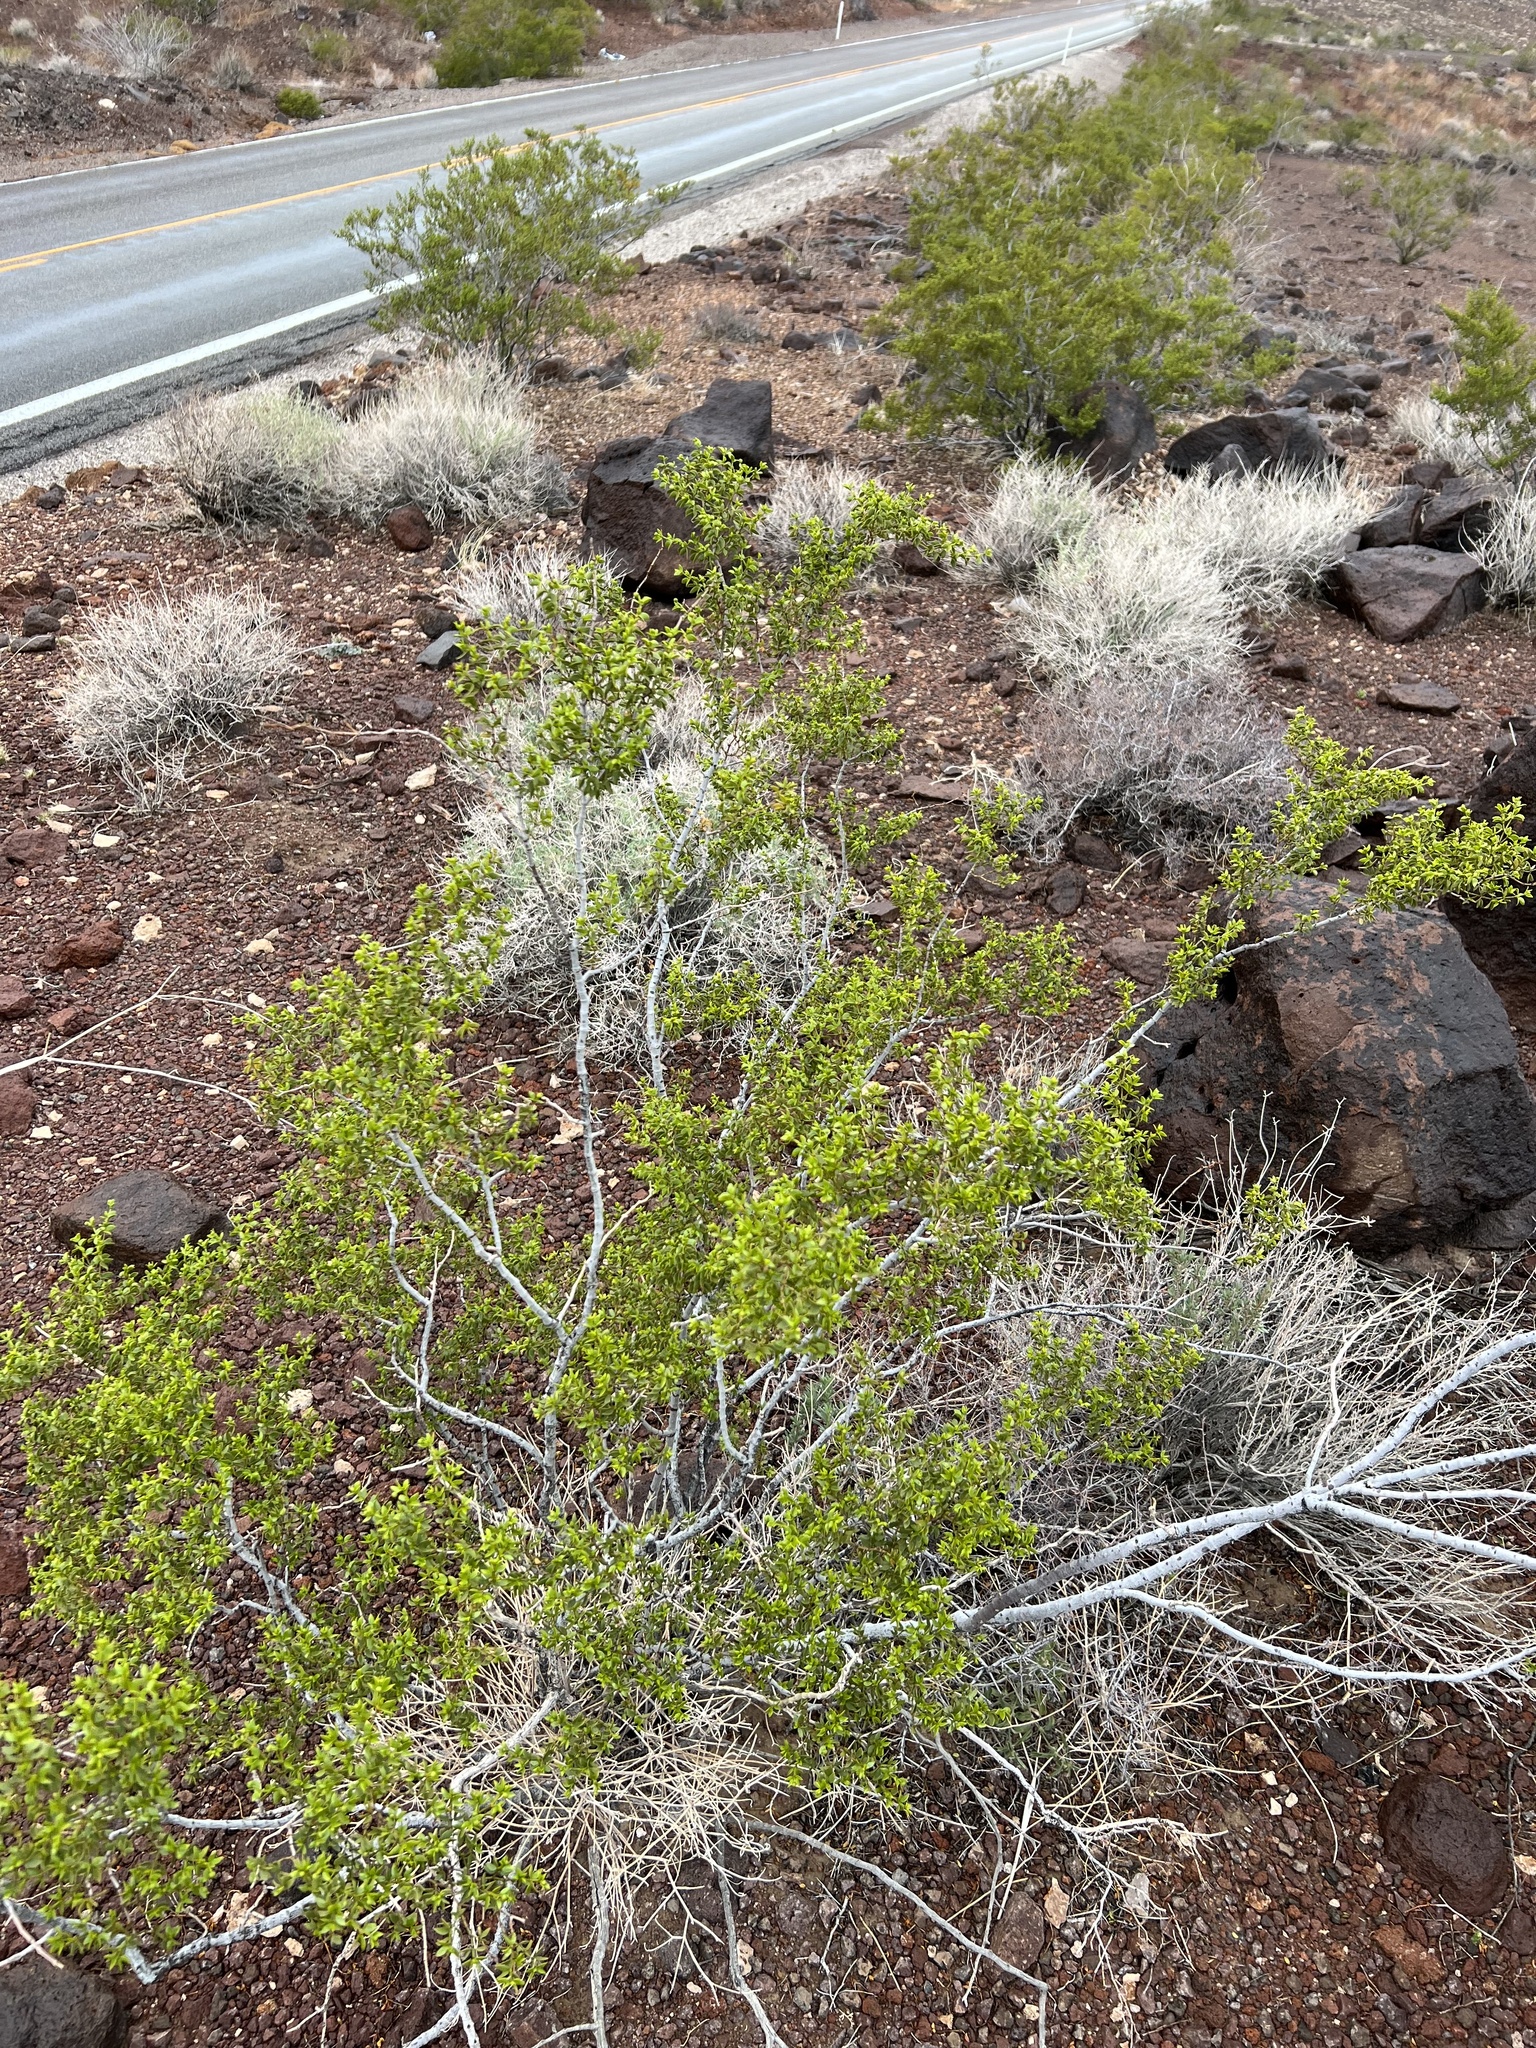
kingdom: Plantae
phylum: Tracheophyta
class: Magnoliopsida
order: Zygophyllales
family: Zygophyllaceae
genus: Larrea
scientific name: Larrea tridentata
